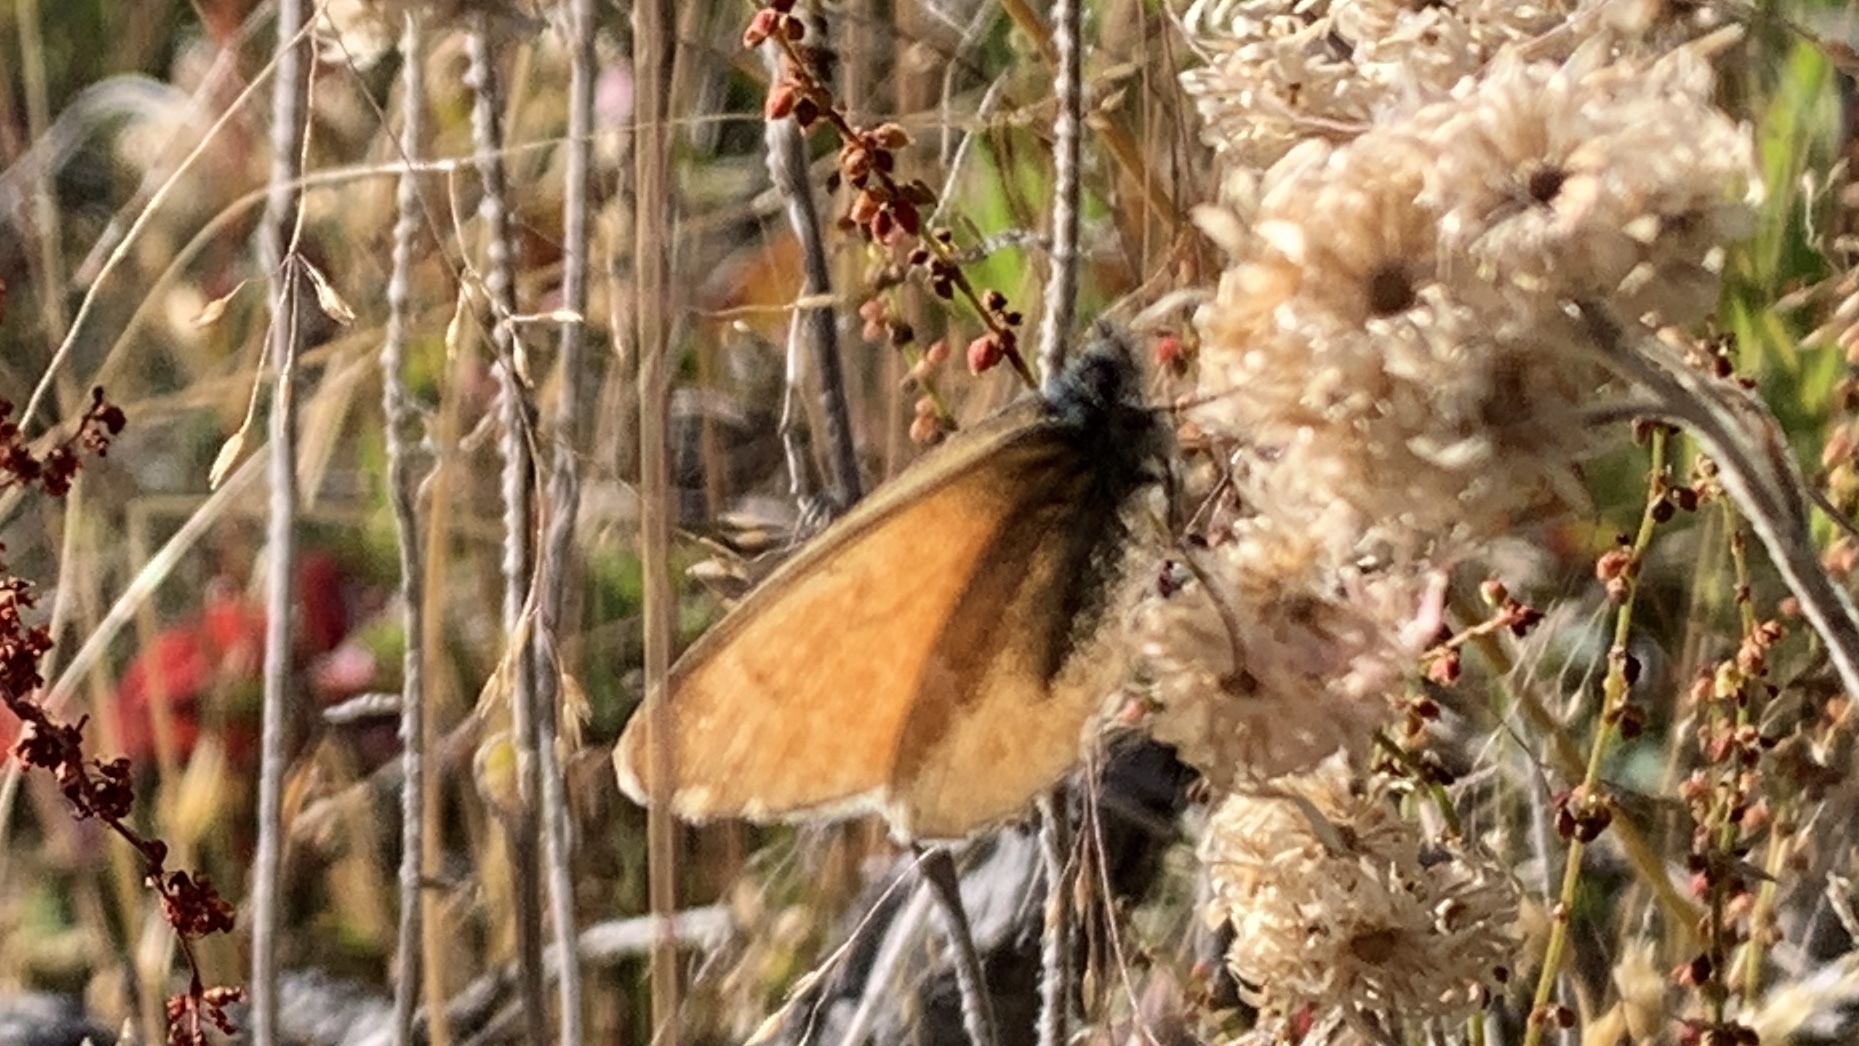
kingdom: Animalia
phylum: Arthropoda
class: Insecta
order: Lepidoptera
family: Nymphalidae
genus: Coenonympha
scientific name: Coenonympha california
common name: Common ringlet
